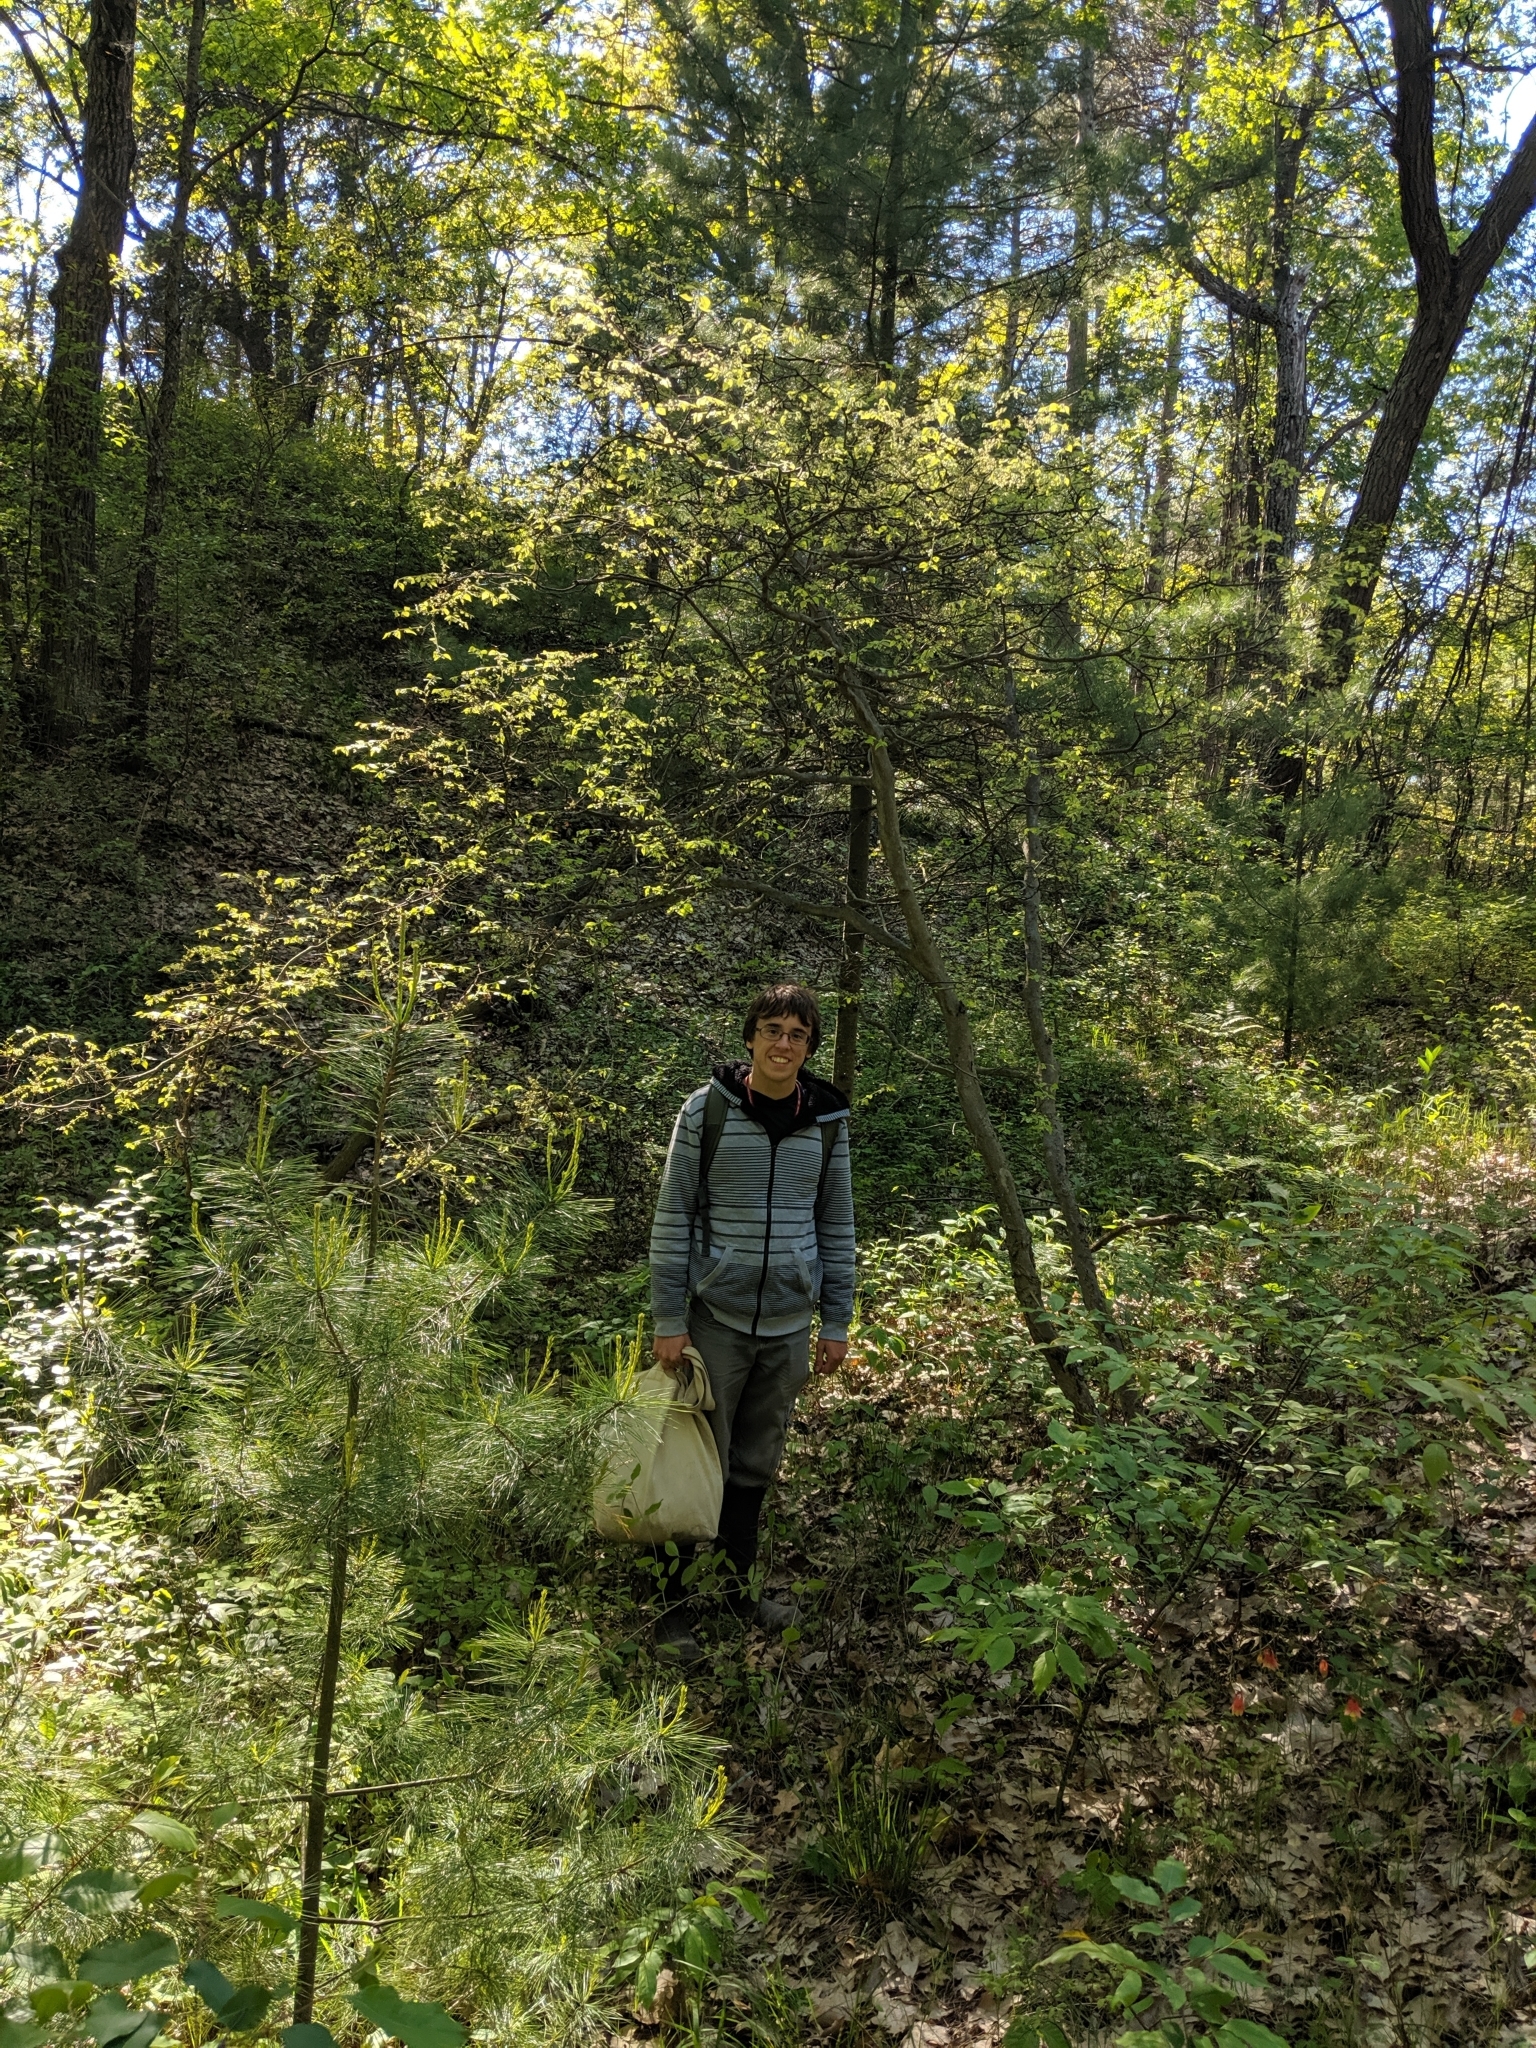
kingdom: Plantae
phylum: Tracheophyta
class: Magnoliopsida
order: Rosales
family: Cannabaceae
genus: Celtis
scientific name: Celtis tenuifolia
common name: Georgia hackberry
